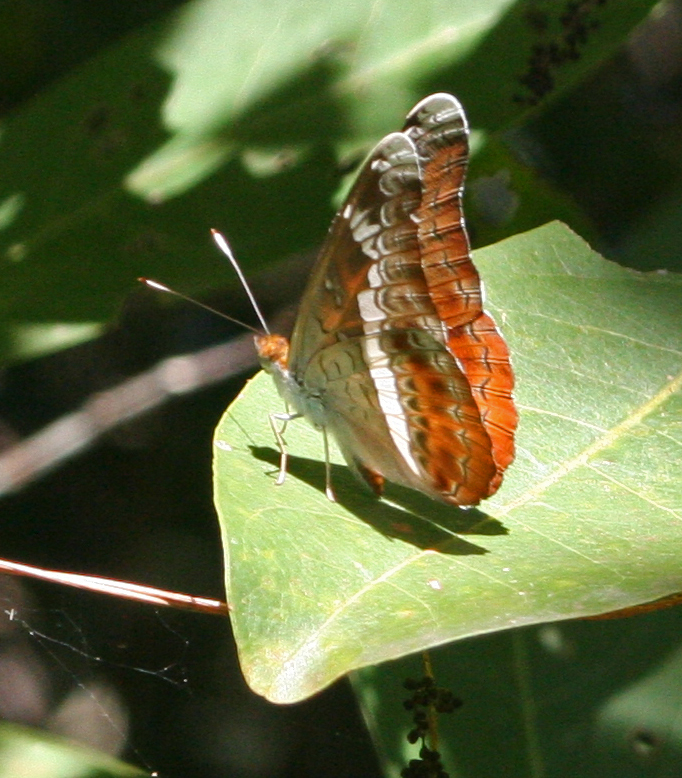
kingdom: Animalia
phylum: Arthropoda
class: Insecta
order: Lepidoptera
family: Nymphalidae
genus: Lebadea
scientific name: Lebadea martha
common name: Knight
